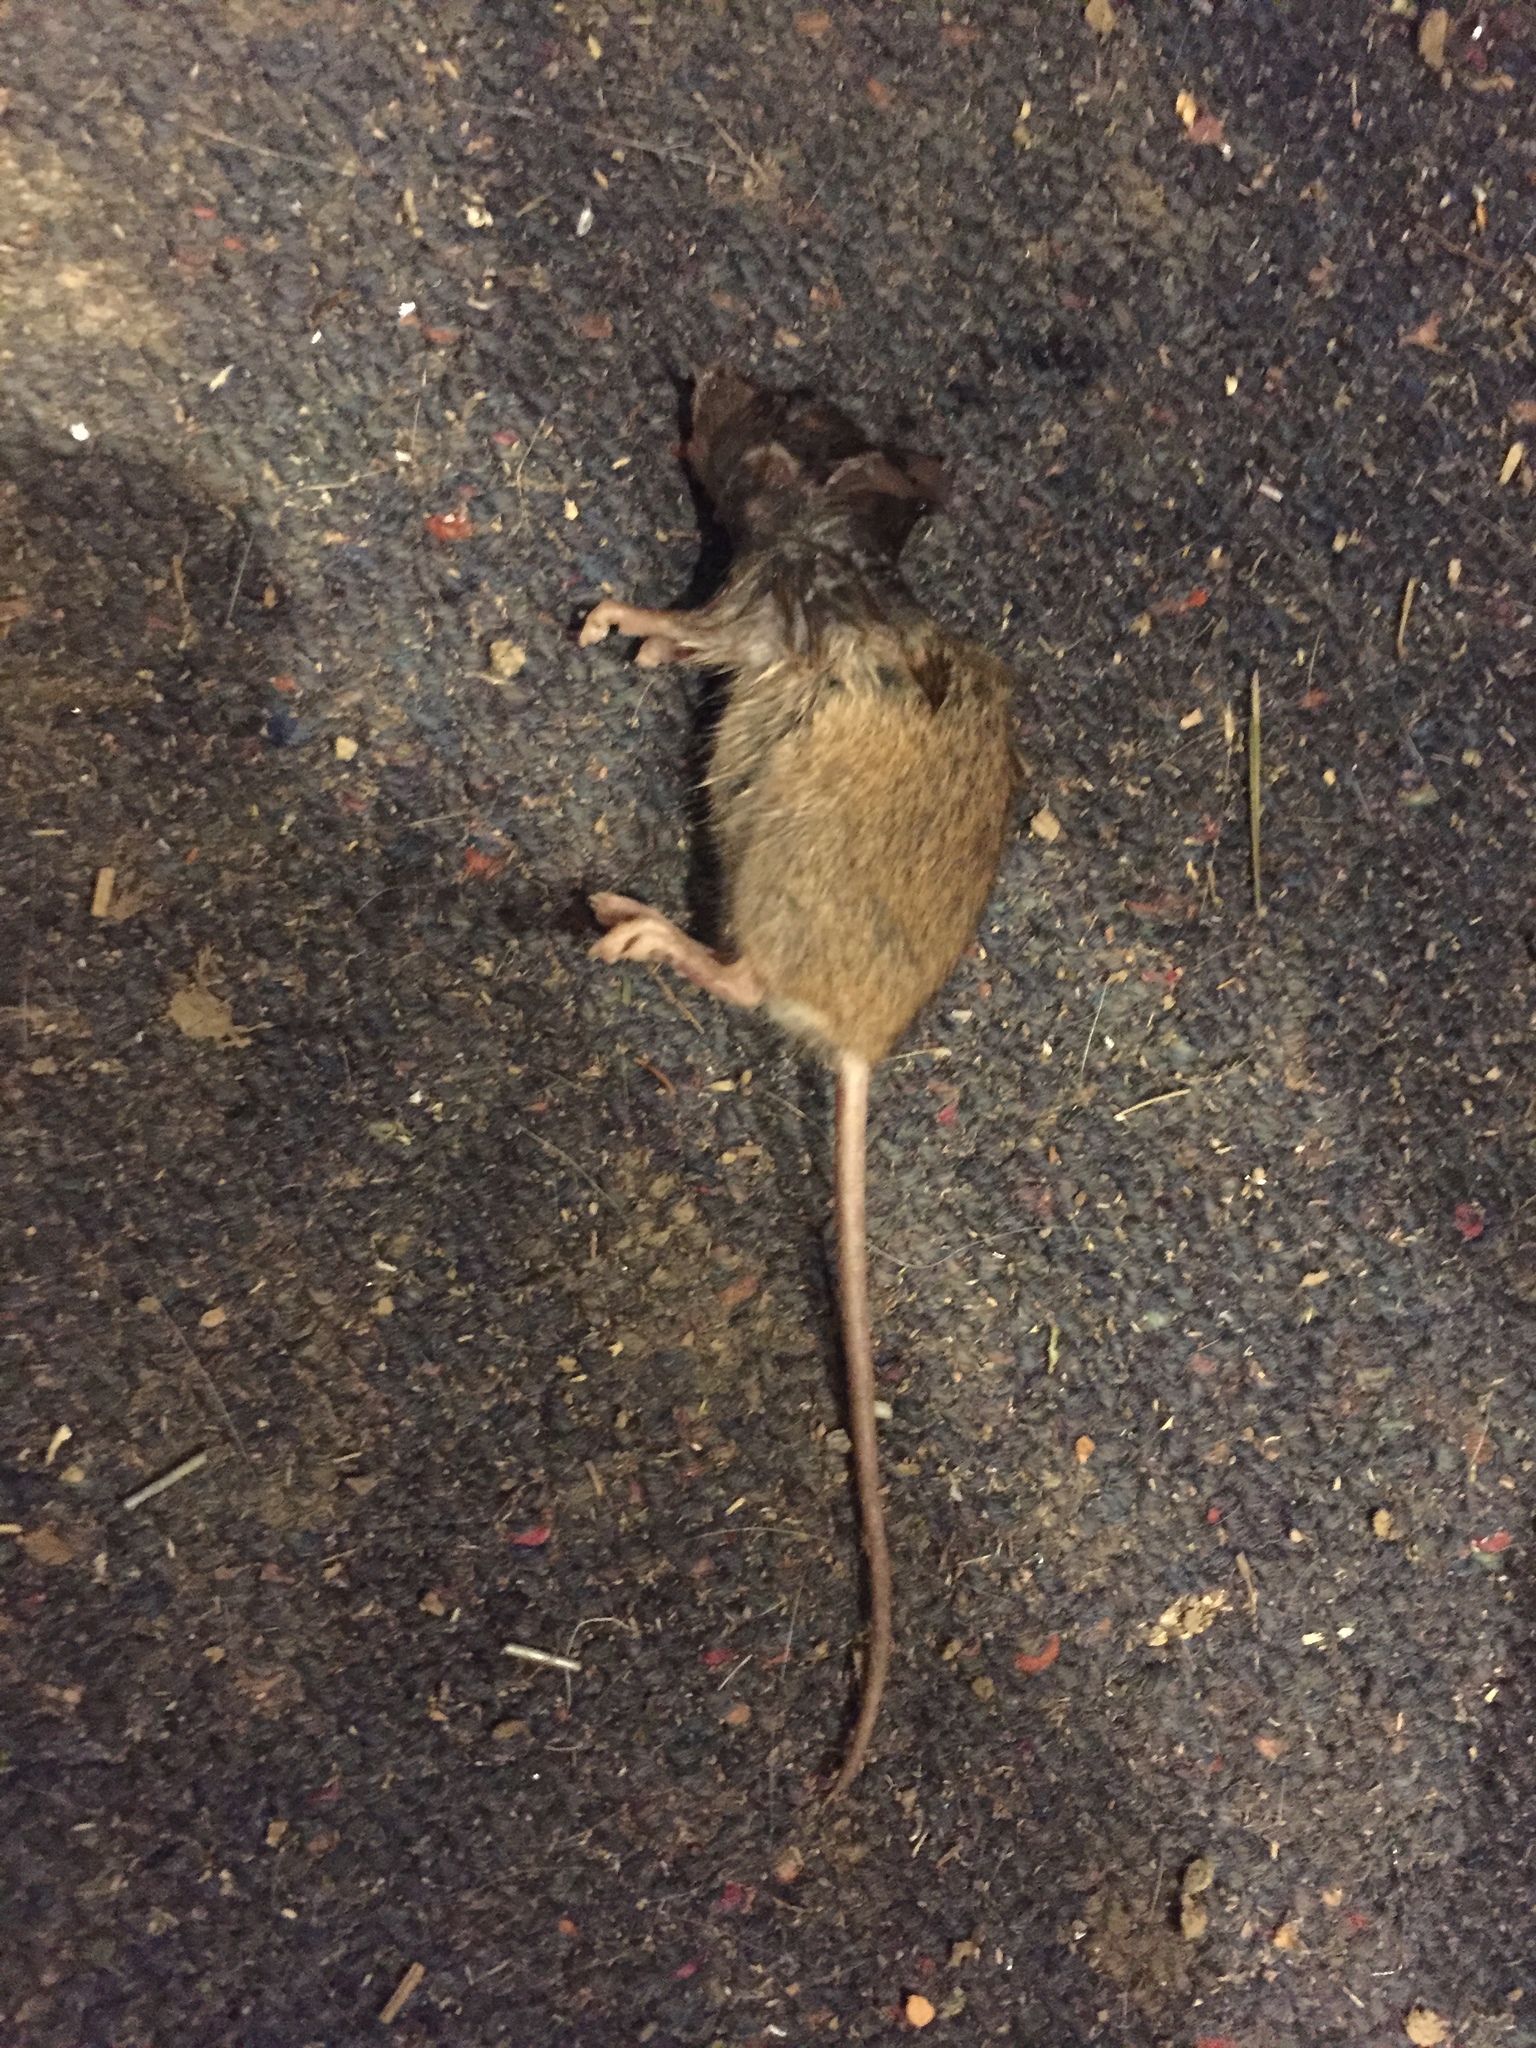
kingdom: Animalia
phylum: Chordata
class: Mammalia
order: Rodentia
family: Muridae
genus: Mus
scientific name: Mus musculus
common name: House mouse
